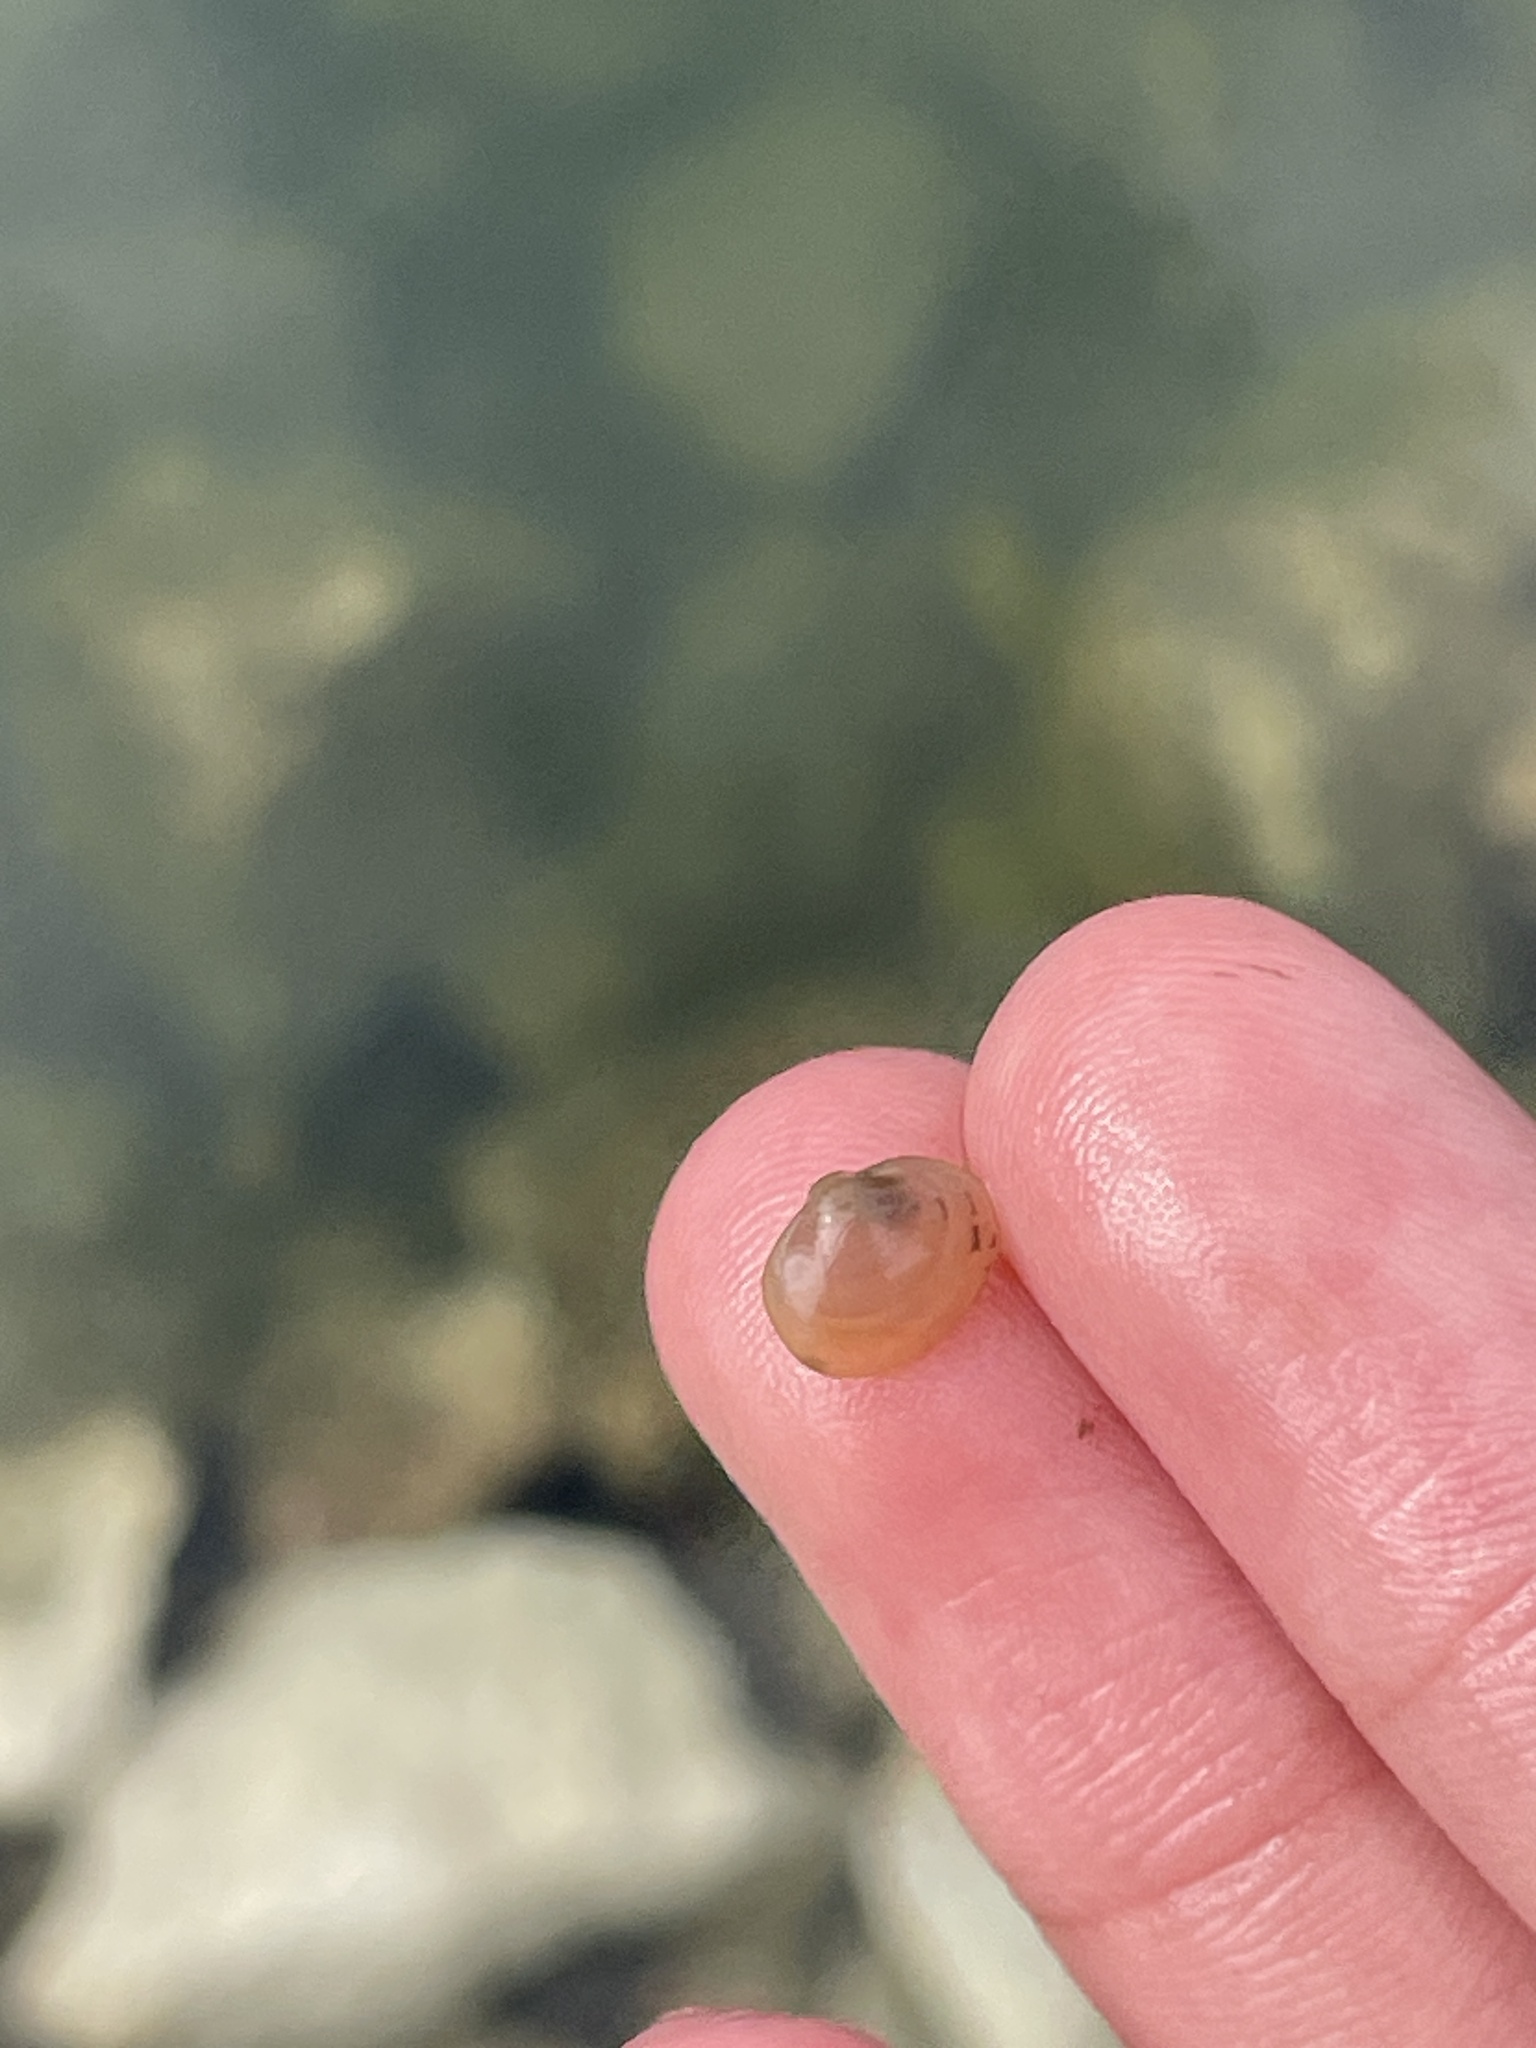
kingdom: Animalia
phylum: Mollusca
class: Bivalvia
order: Sphaeriida
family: Sphaeriidae
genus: Musculium
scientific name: Musculium lacustre
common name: Lake fingernailclam
